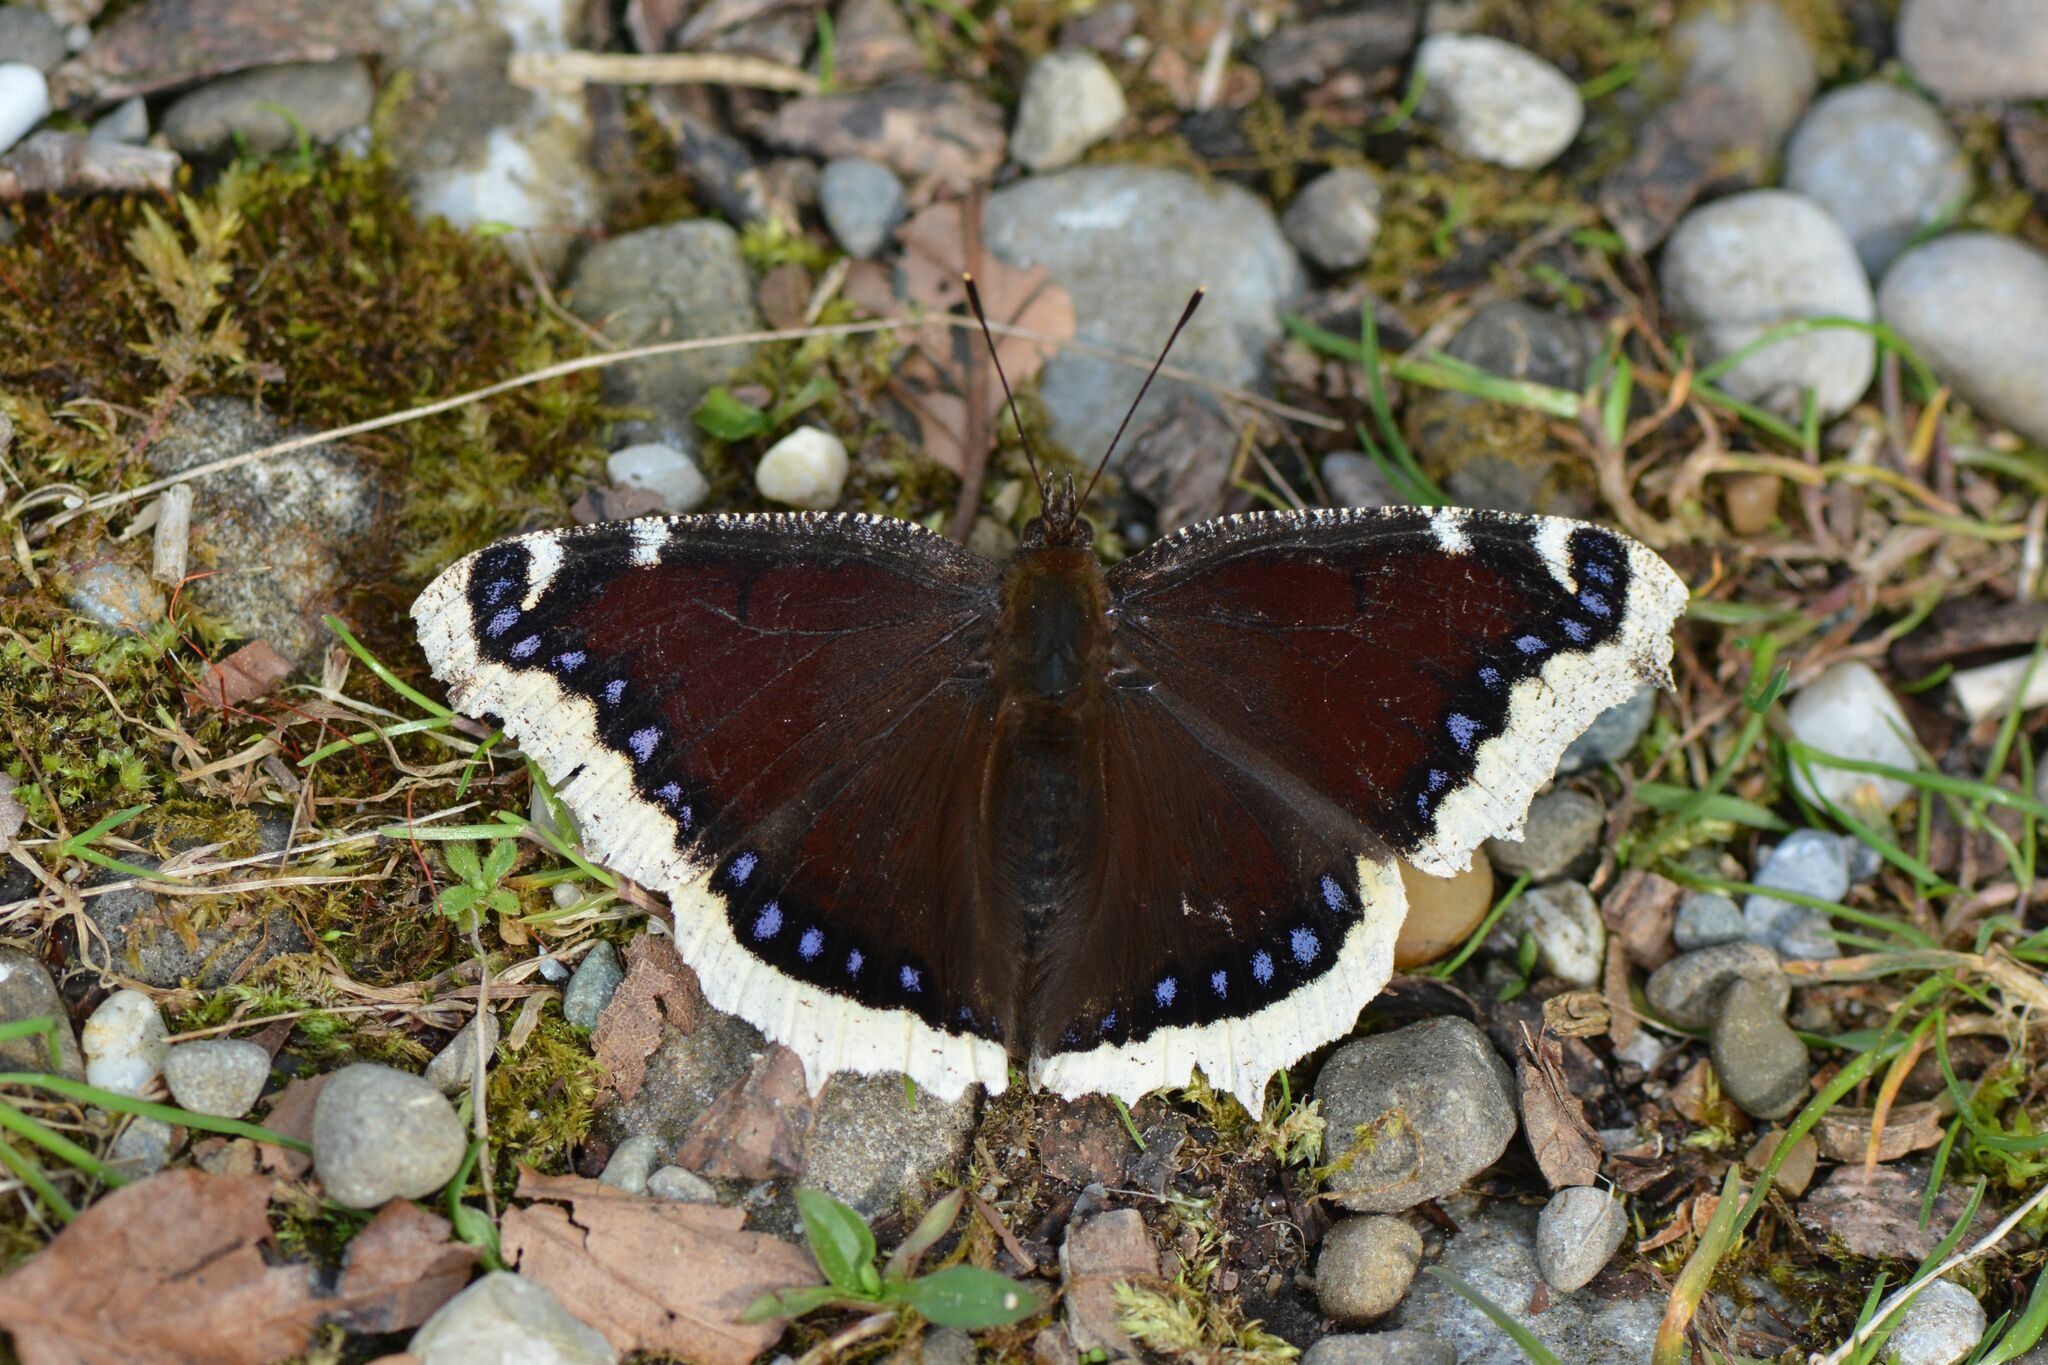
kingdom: Animalia
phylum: Arthropoda
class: Insecta
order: Lepidoptera
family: Nymphalidae
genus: Nymphalis
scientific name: Nymphalis antiopa
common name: Camberwell beauty
